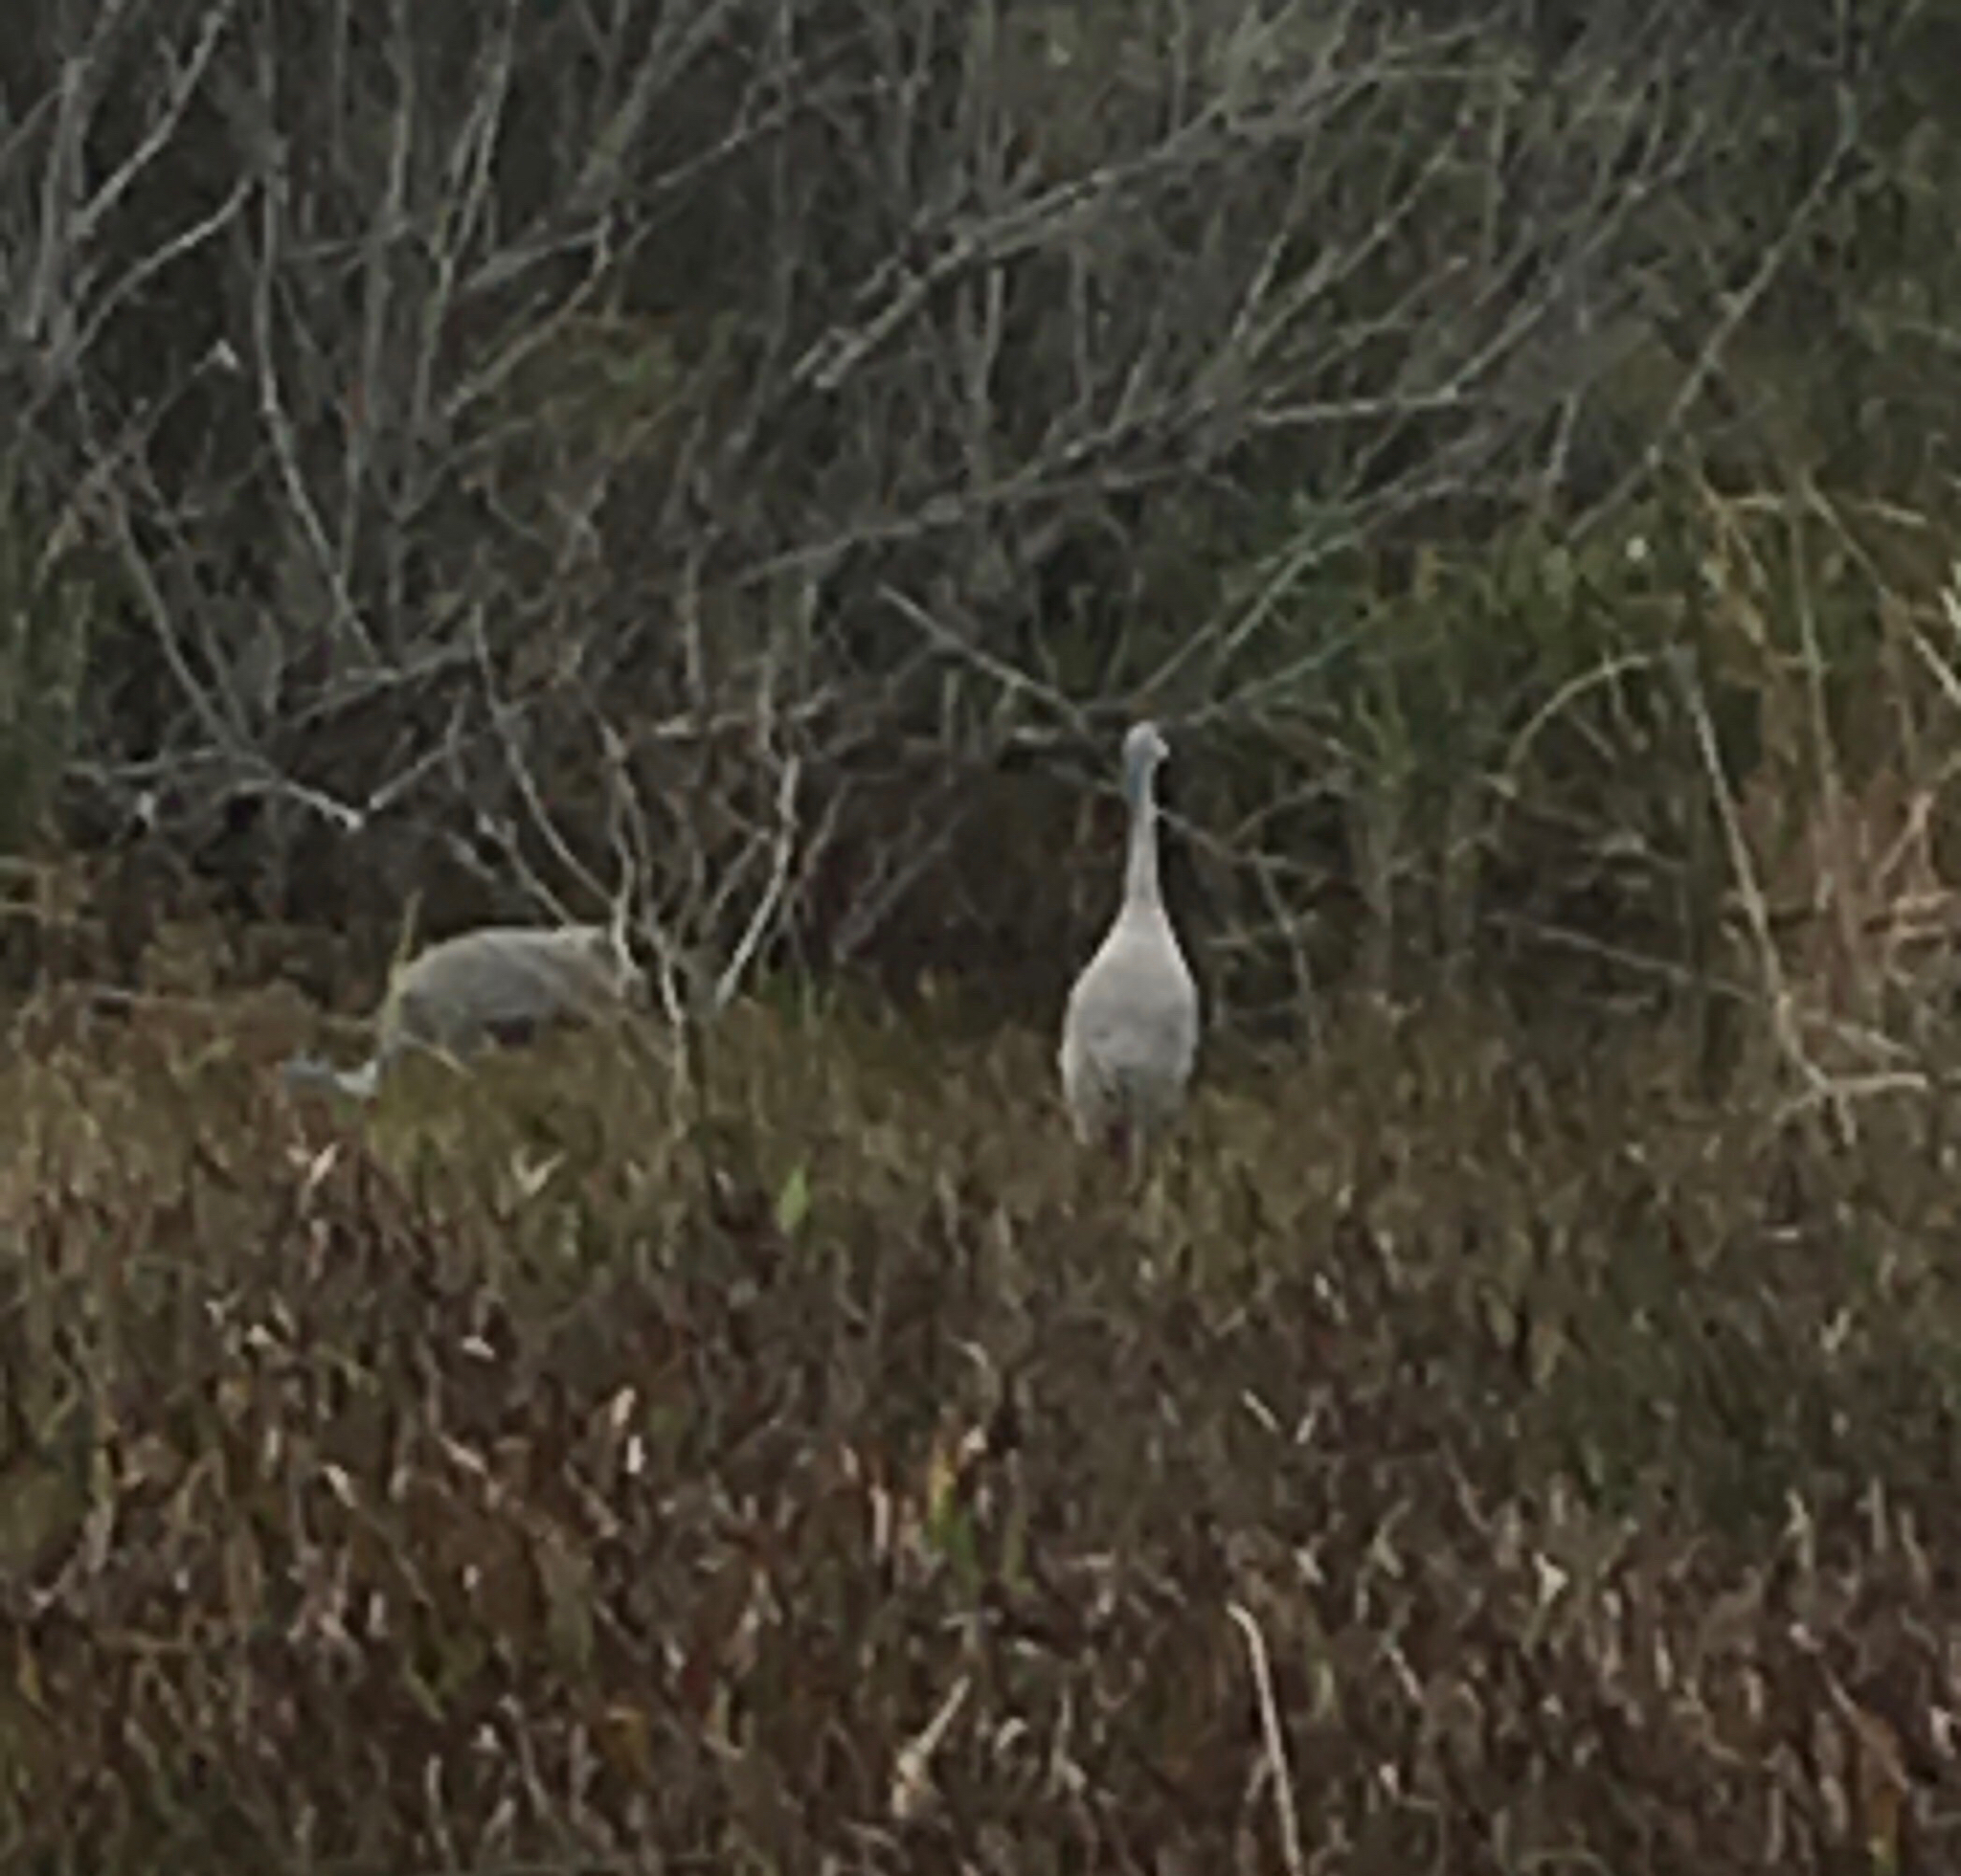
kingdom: Animalia
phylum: Chordata
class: Aves
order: Gruiformes
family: Gruidae
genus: Grus
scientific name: Grus canadensis
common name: Sandhill crane
